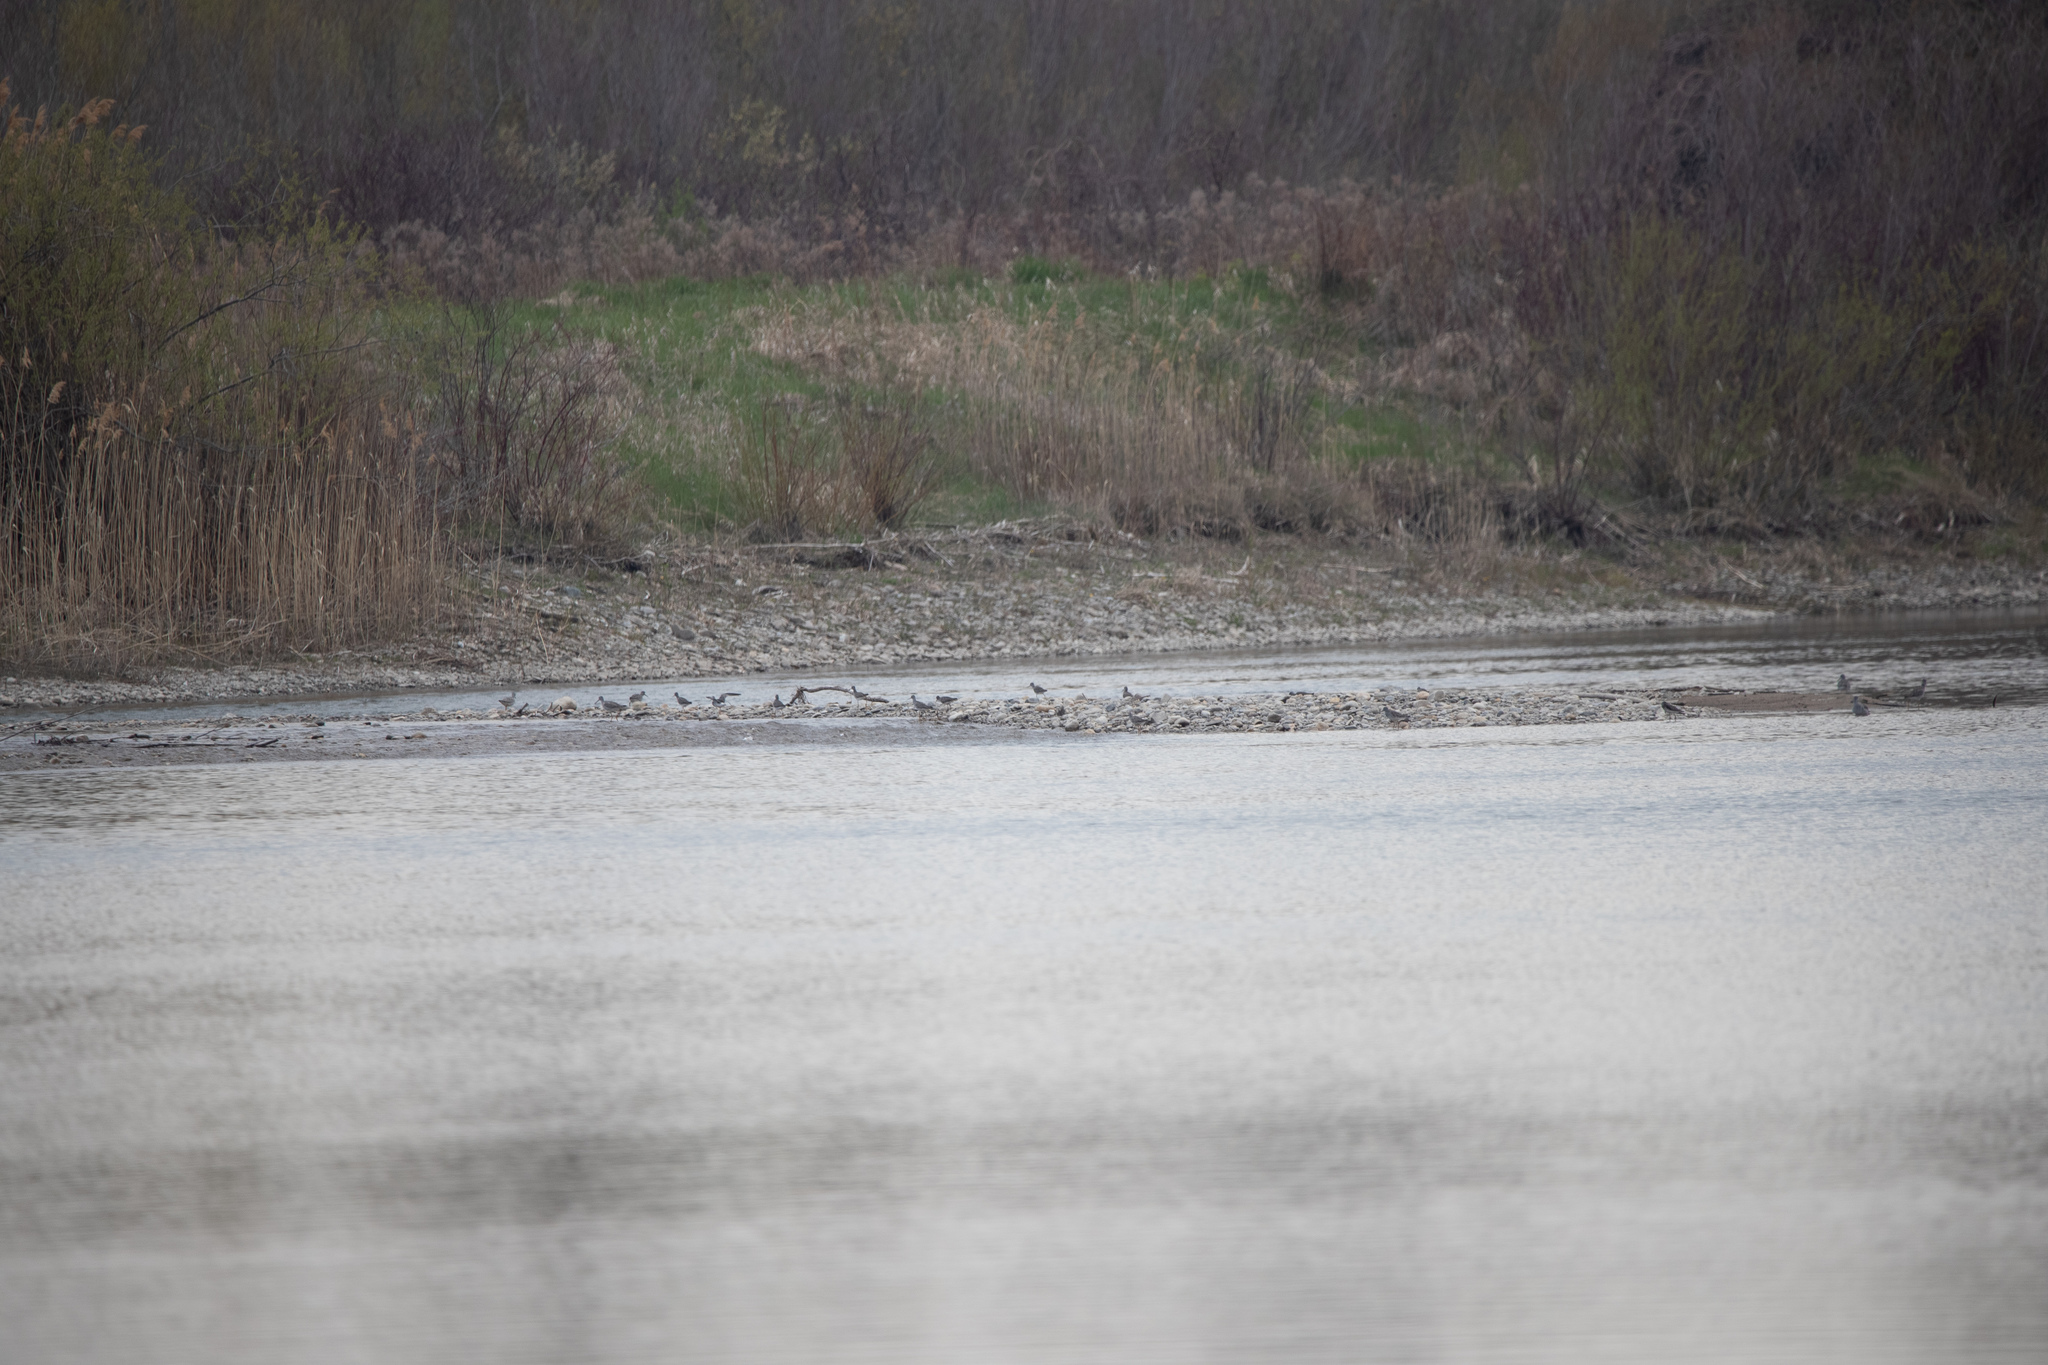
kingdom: Animalia
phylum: Chordata
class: Aves
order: Charadriiformes
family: Scolopacidae
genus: Calidris
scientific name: Calidris melanotos
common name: Pectoral sandpiper
